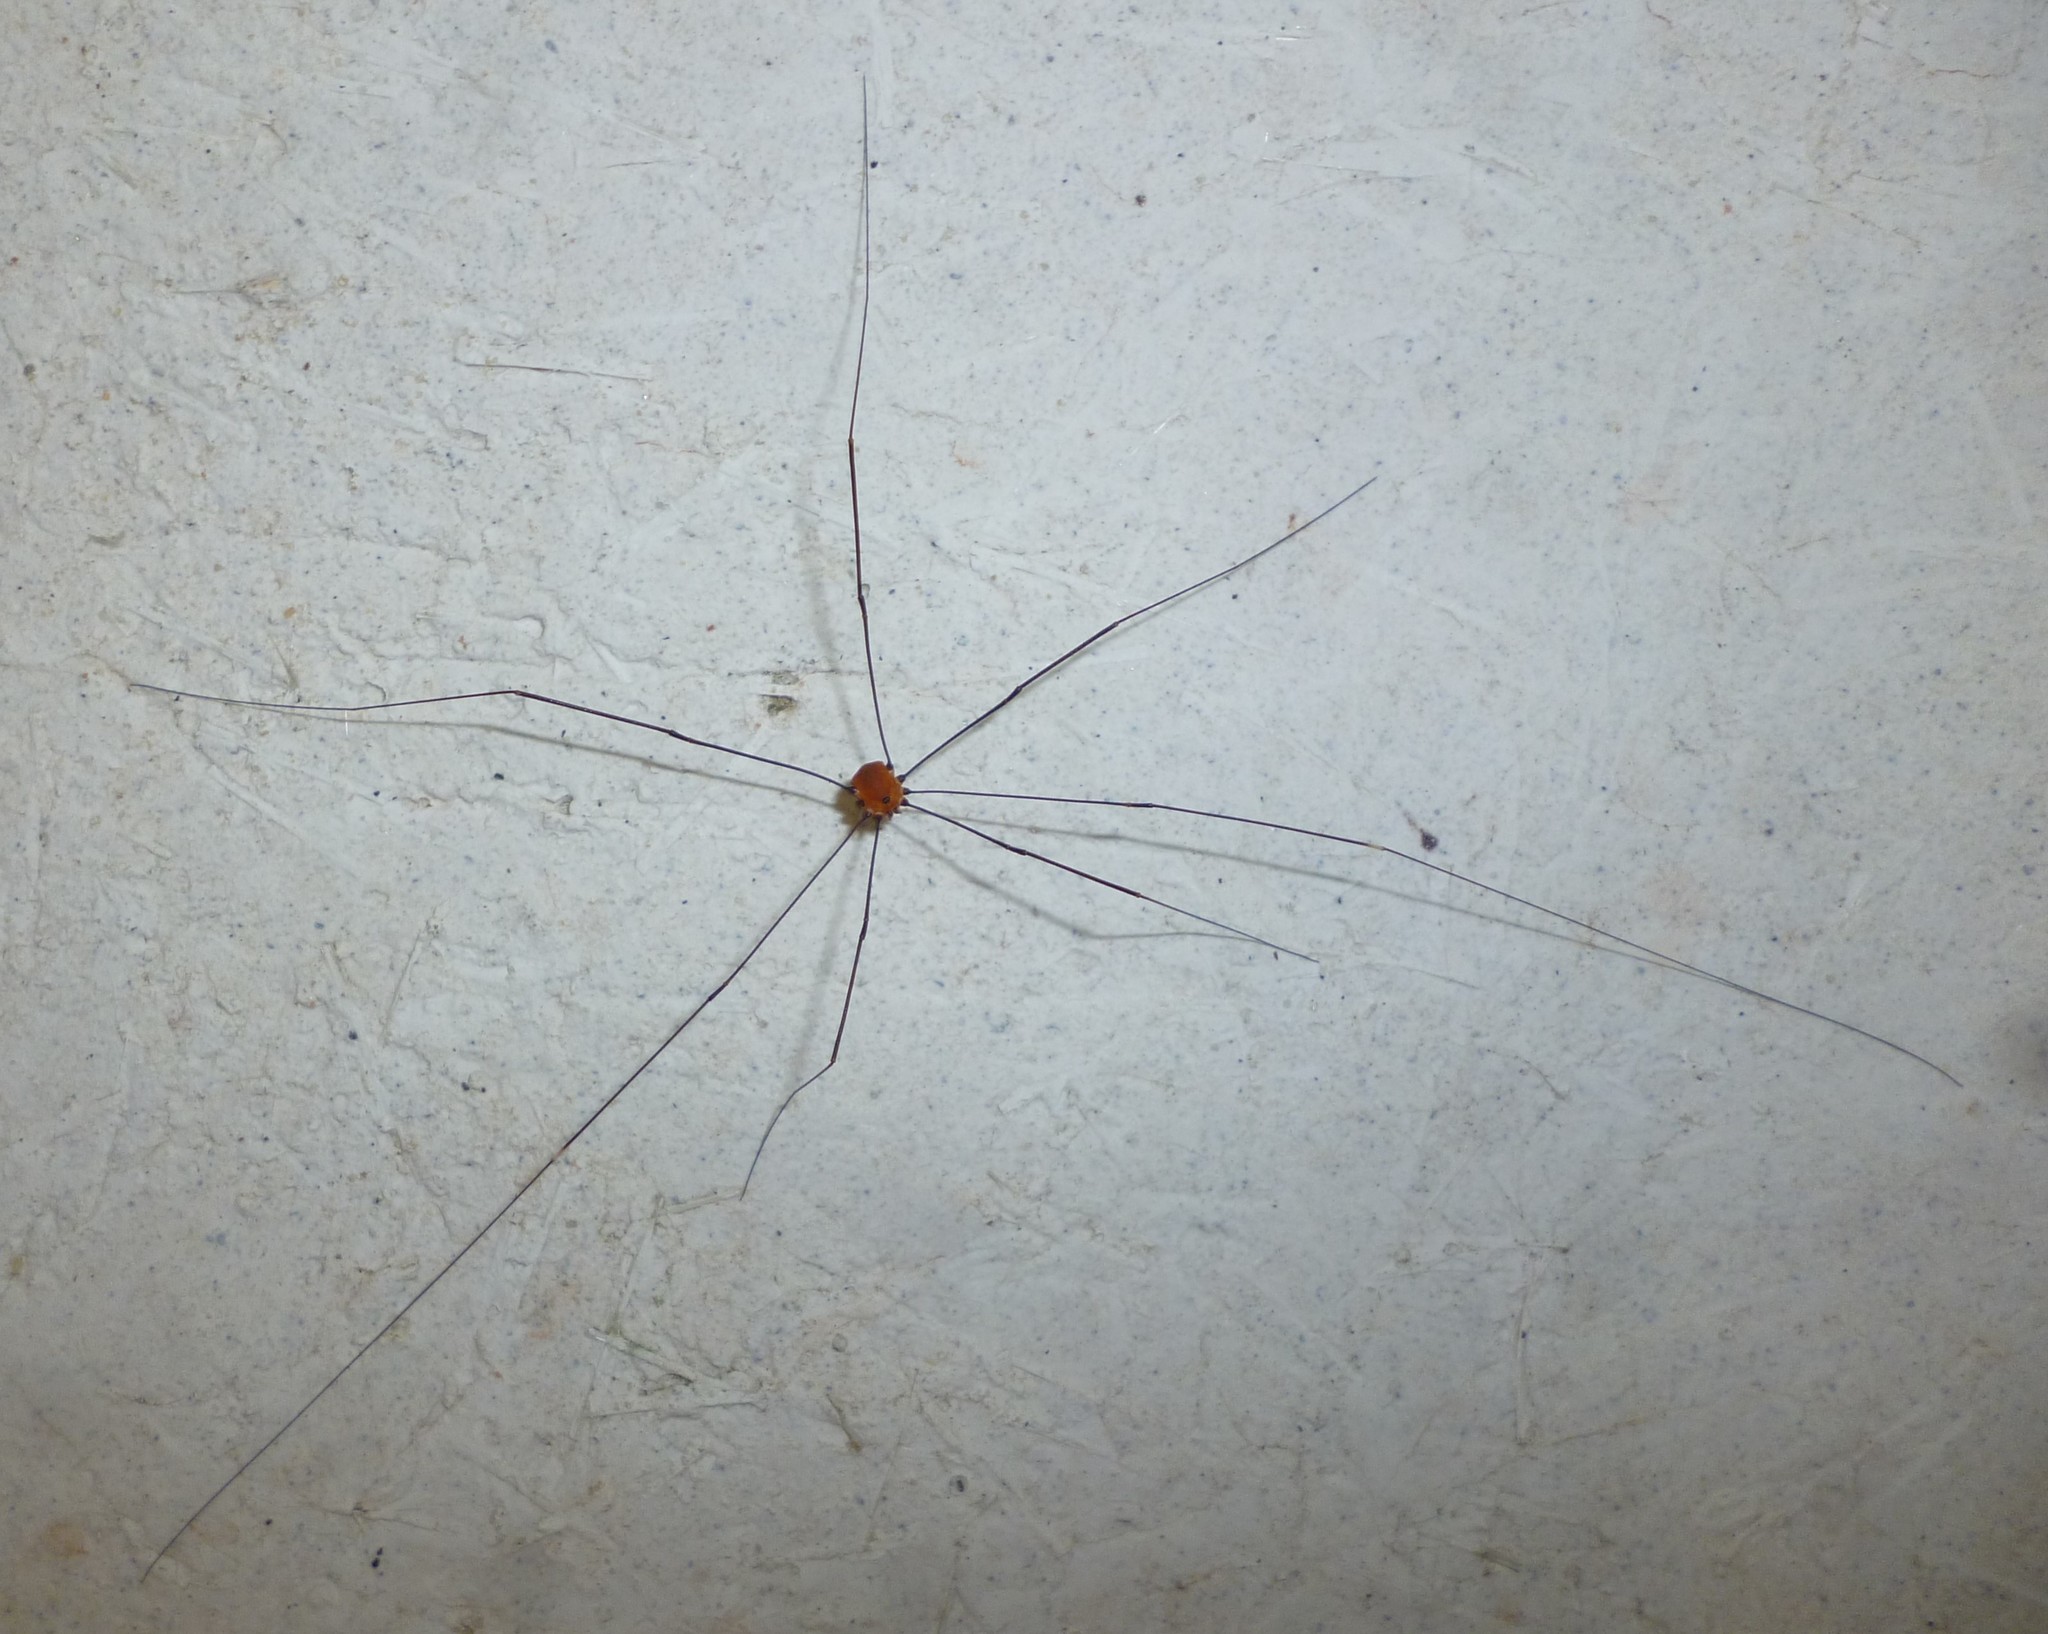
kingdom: Animalia
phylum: Arthropoda
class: Arachnida
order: Opiliones
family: Sclerosomatidae
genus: Leiobunum
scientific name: Leiobunum aldrichi
